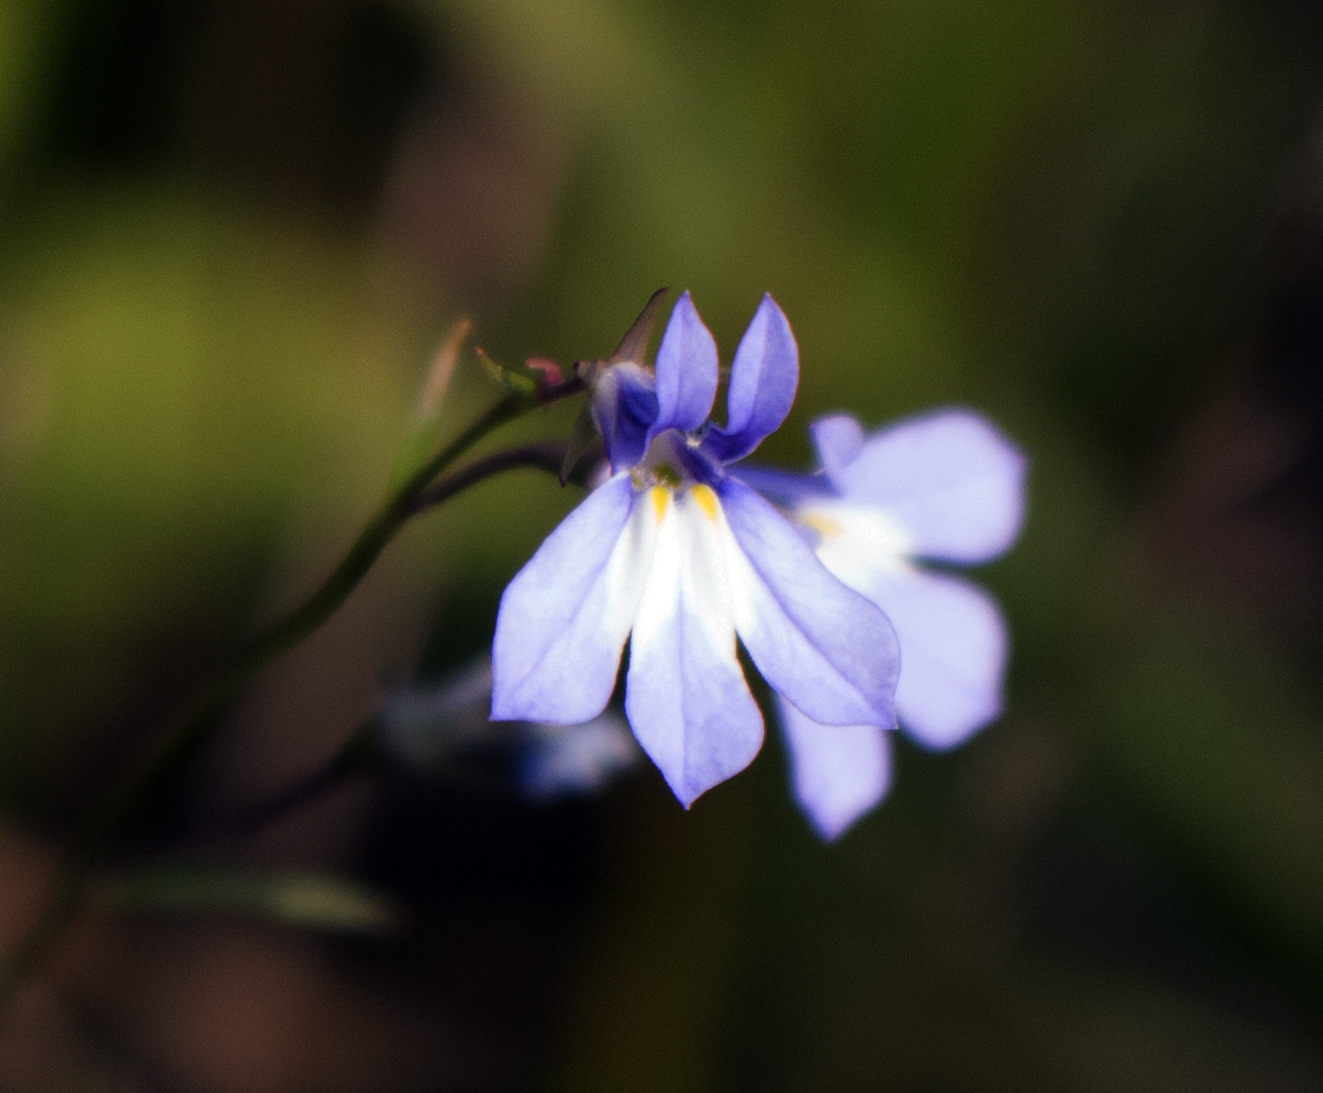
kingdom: Plantae
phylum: Tracheophyta
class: Magnoliopsida
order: Asterales
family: Campanulaceae
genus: Lobelia
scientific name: Lobelia kalmii
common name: Kalm's lobelia
